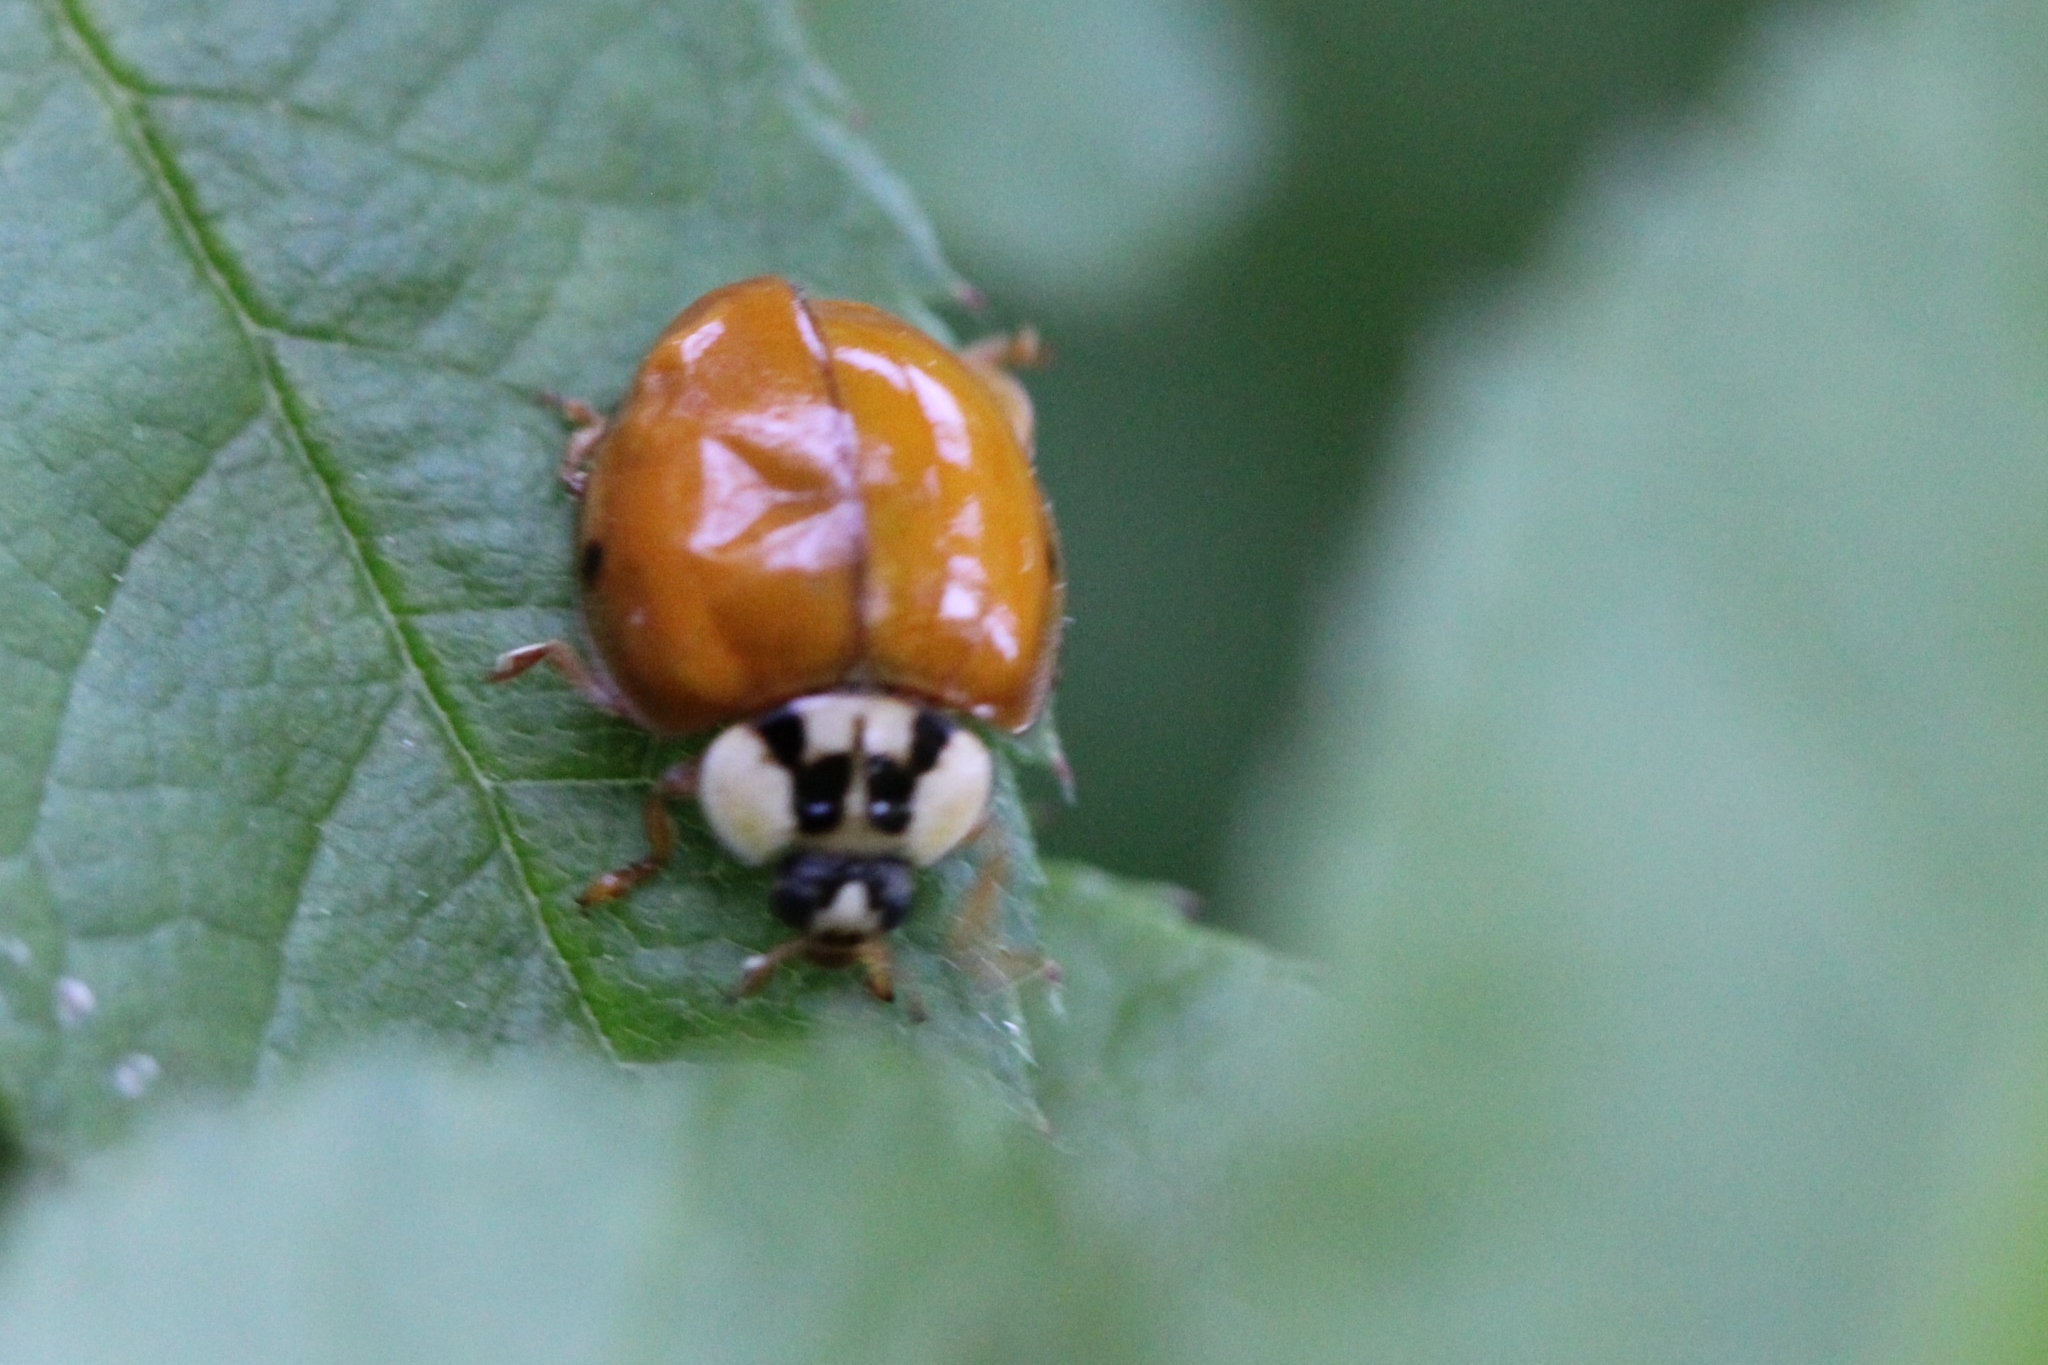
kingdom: Animalia
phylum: Arthropoda
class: Insecta
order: Coleoptera
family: Coccinellidae
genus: Harmonia
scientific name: Harmonia axyridis
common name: Harlequin ladybird
